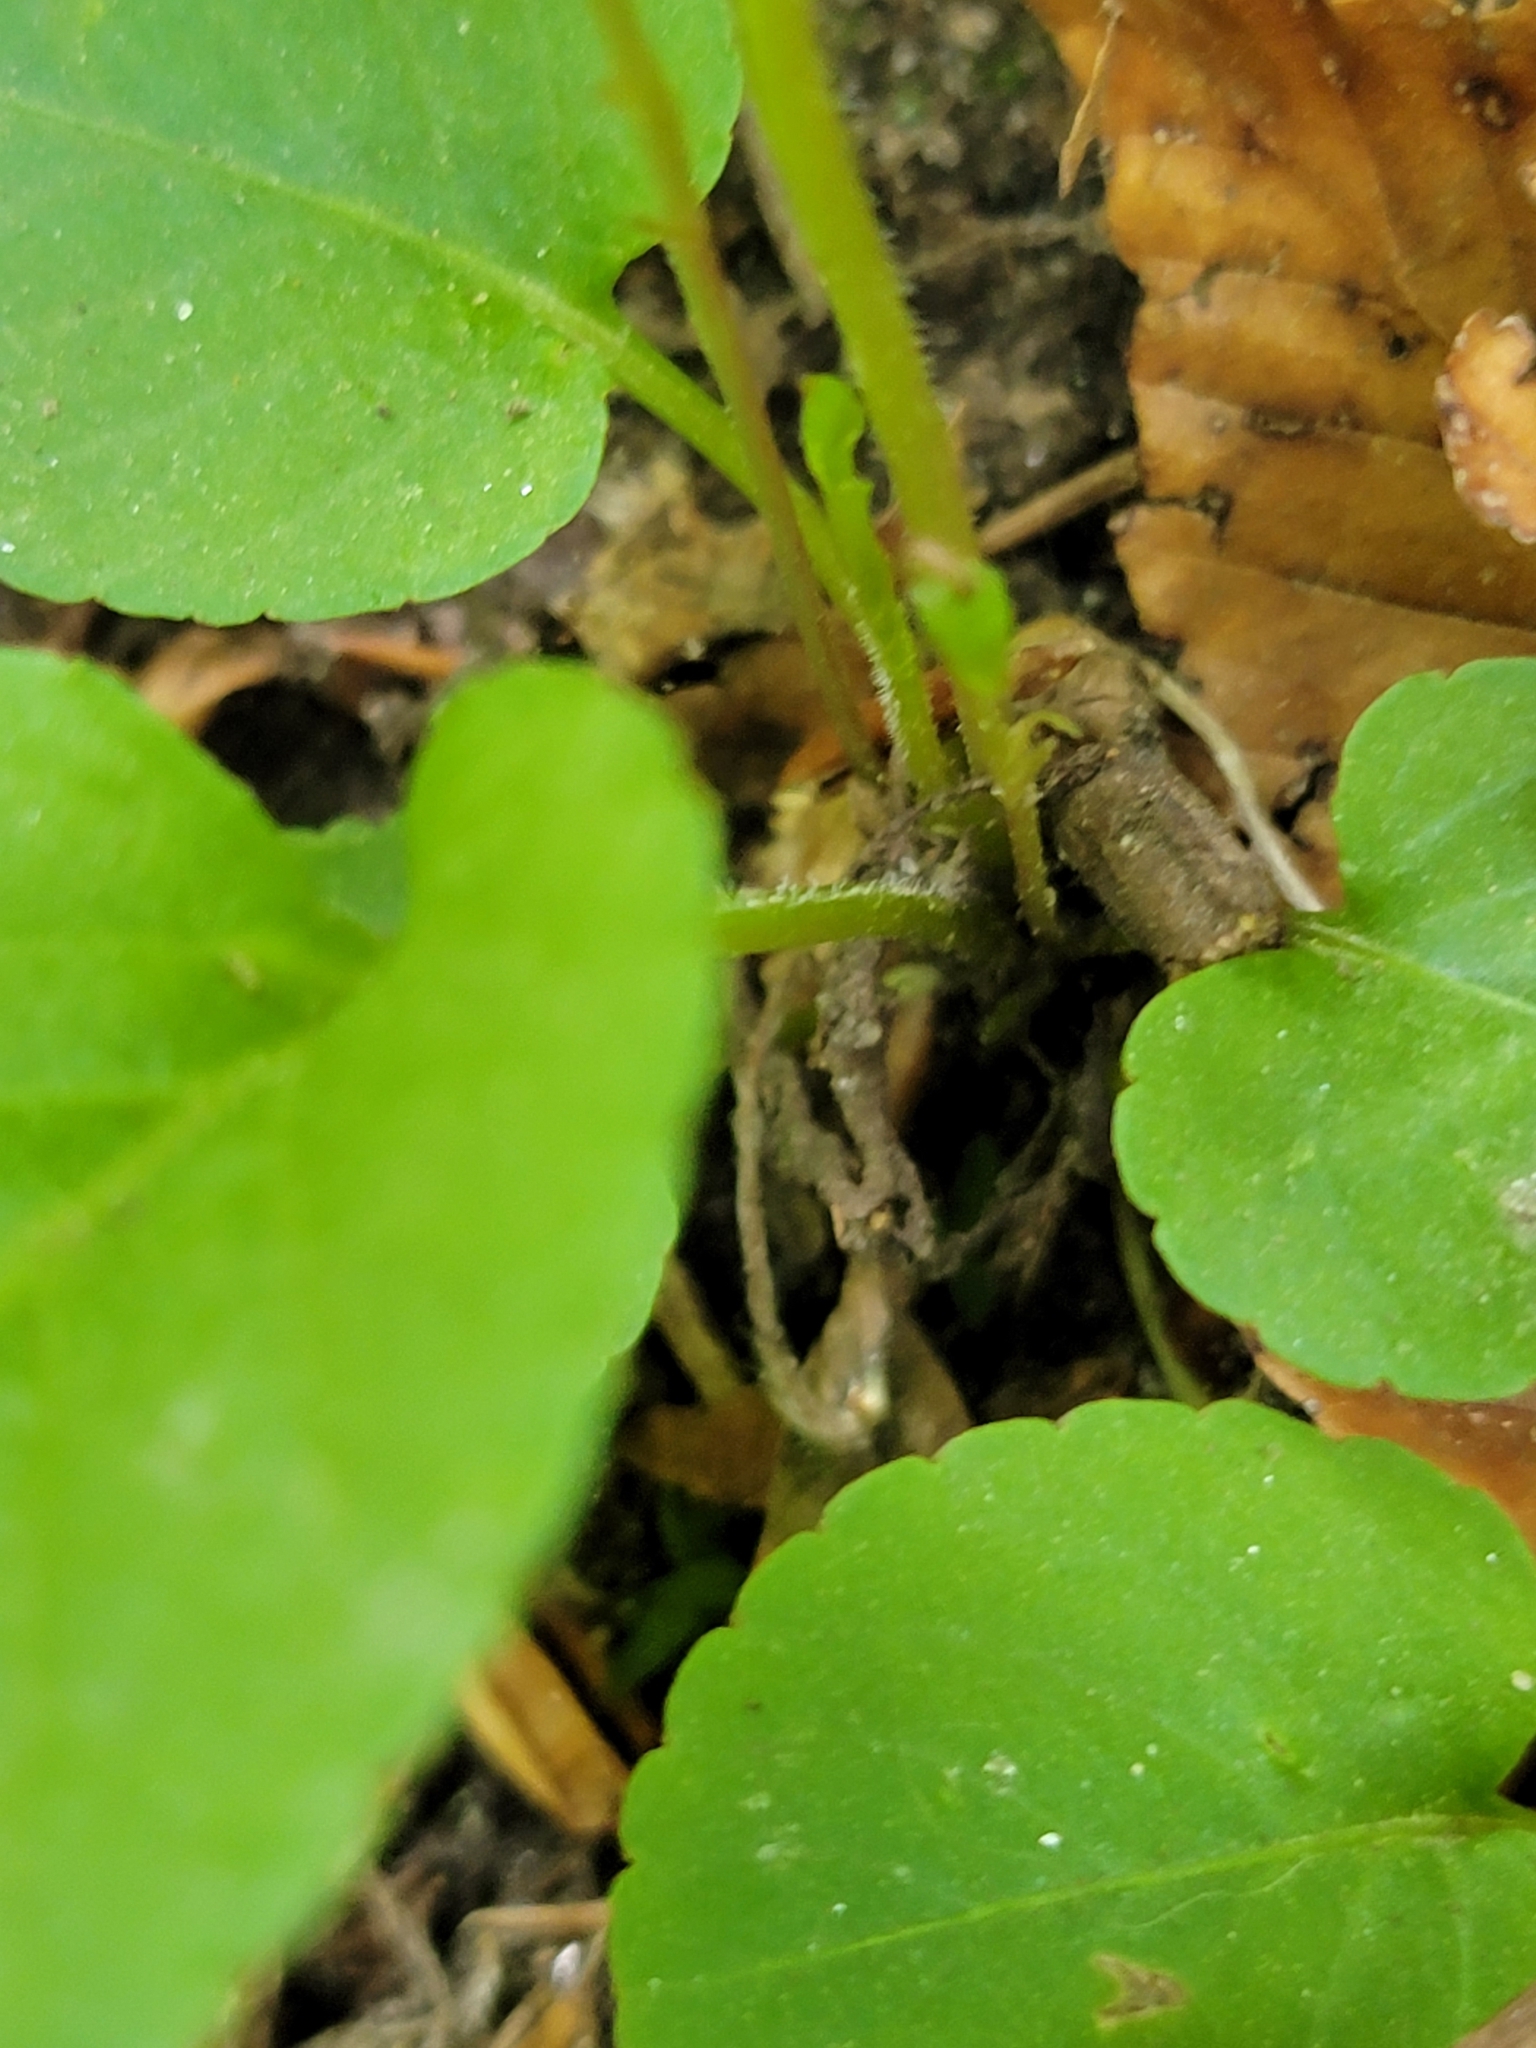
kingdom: Plantae
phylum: Tracheophyta
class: Magnoliopsida
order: Malpighiales
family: Violaceae
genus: Viola
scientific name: Viola primulifolia
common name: Primrose-leaf violet
